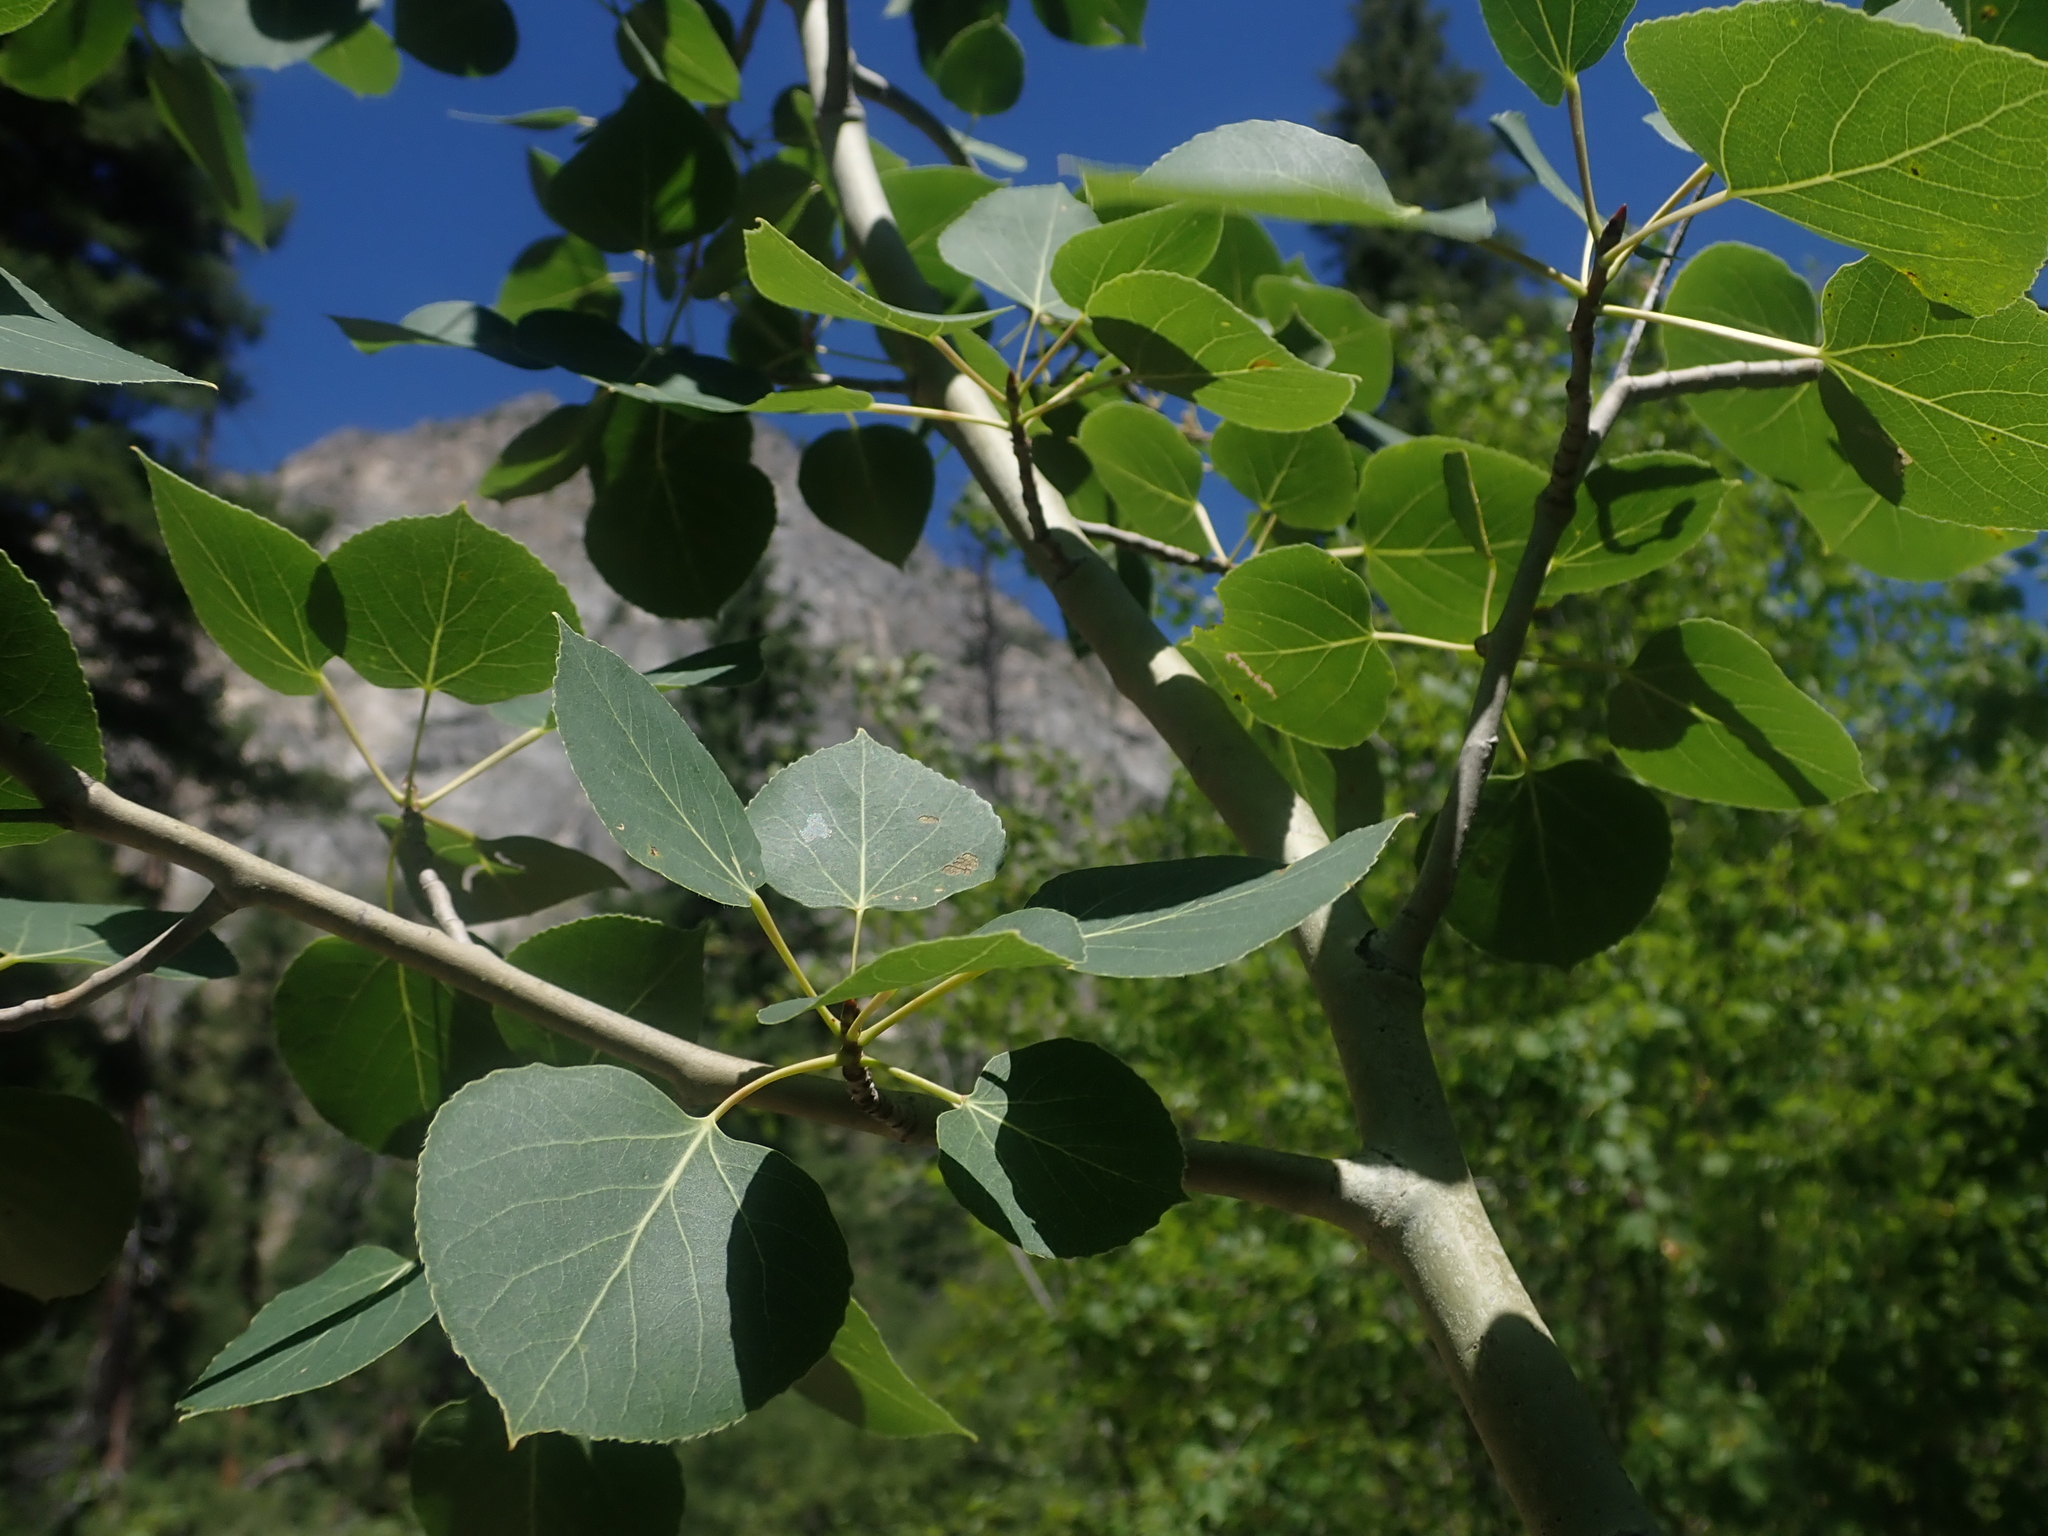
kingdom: Plantae
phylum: Tracheophyta
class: Magnoliopsida
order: Malpighiales
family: Salicaceae
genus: Populus
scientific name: Populus tremuloides
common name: Quaking aspen
